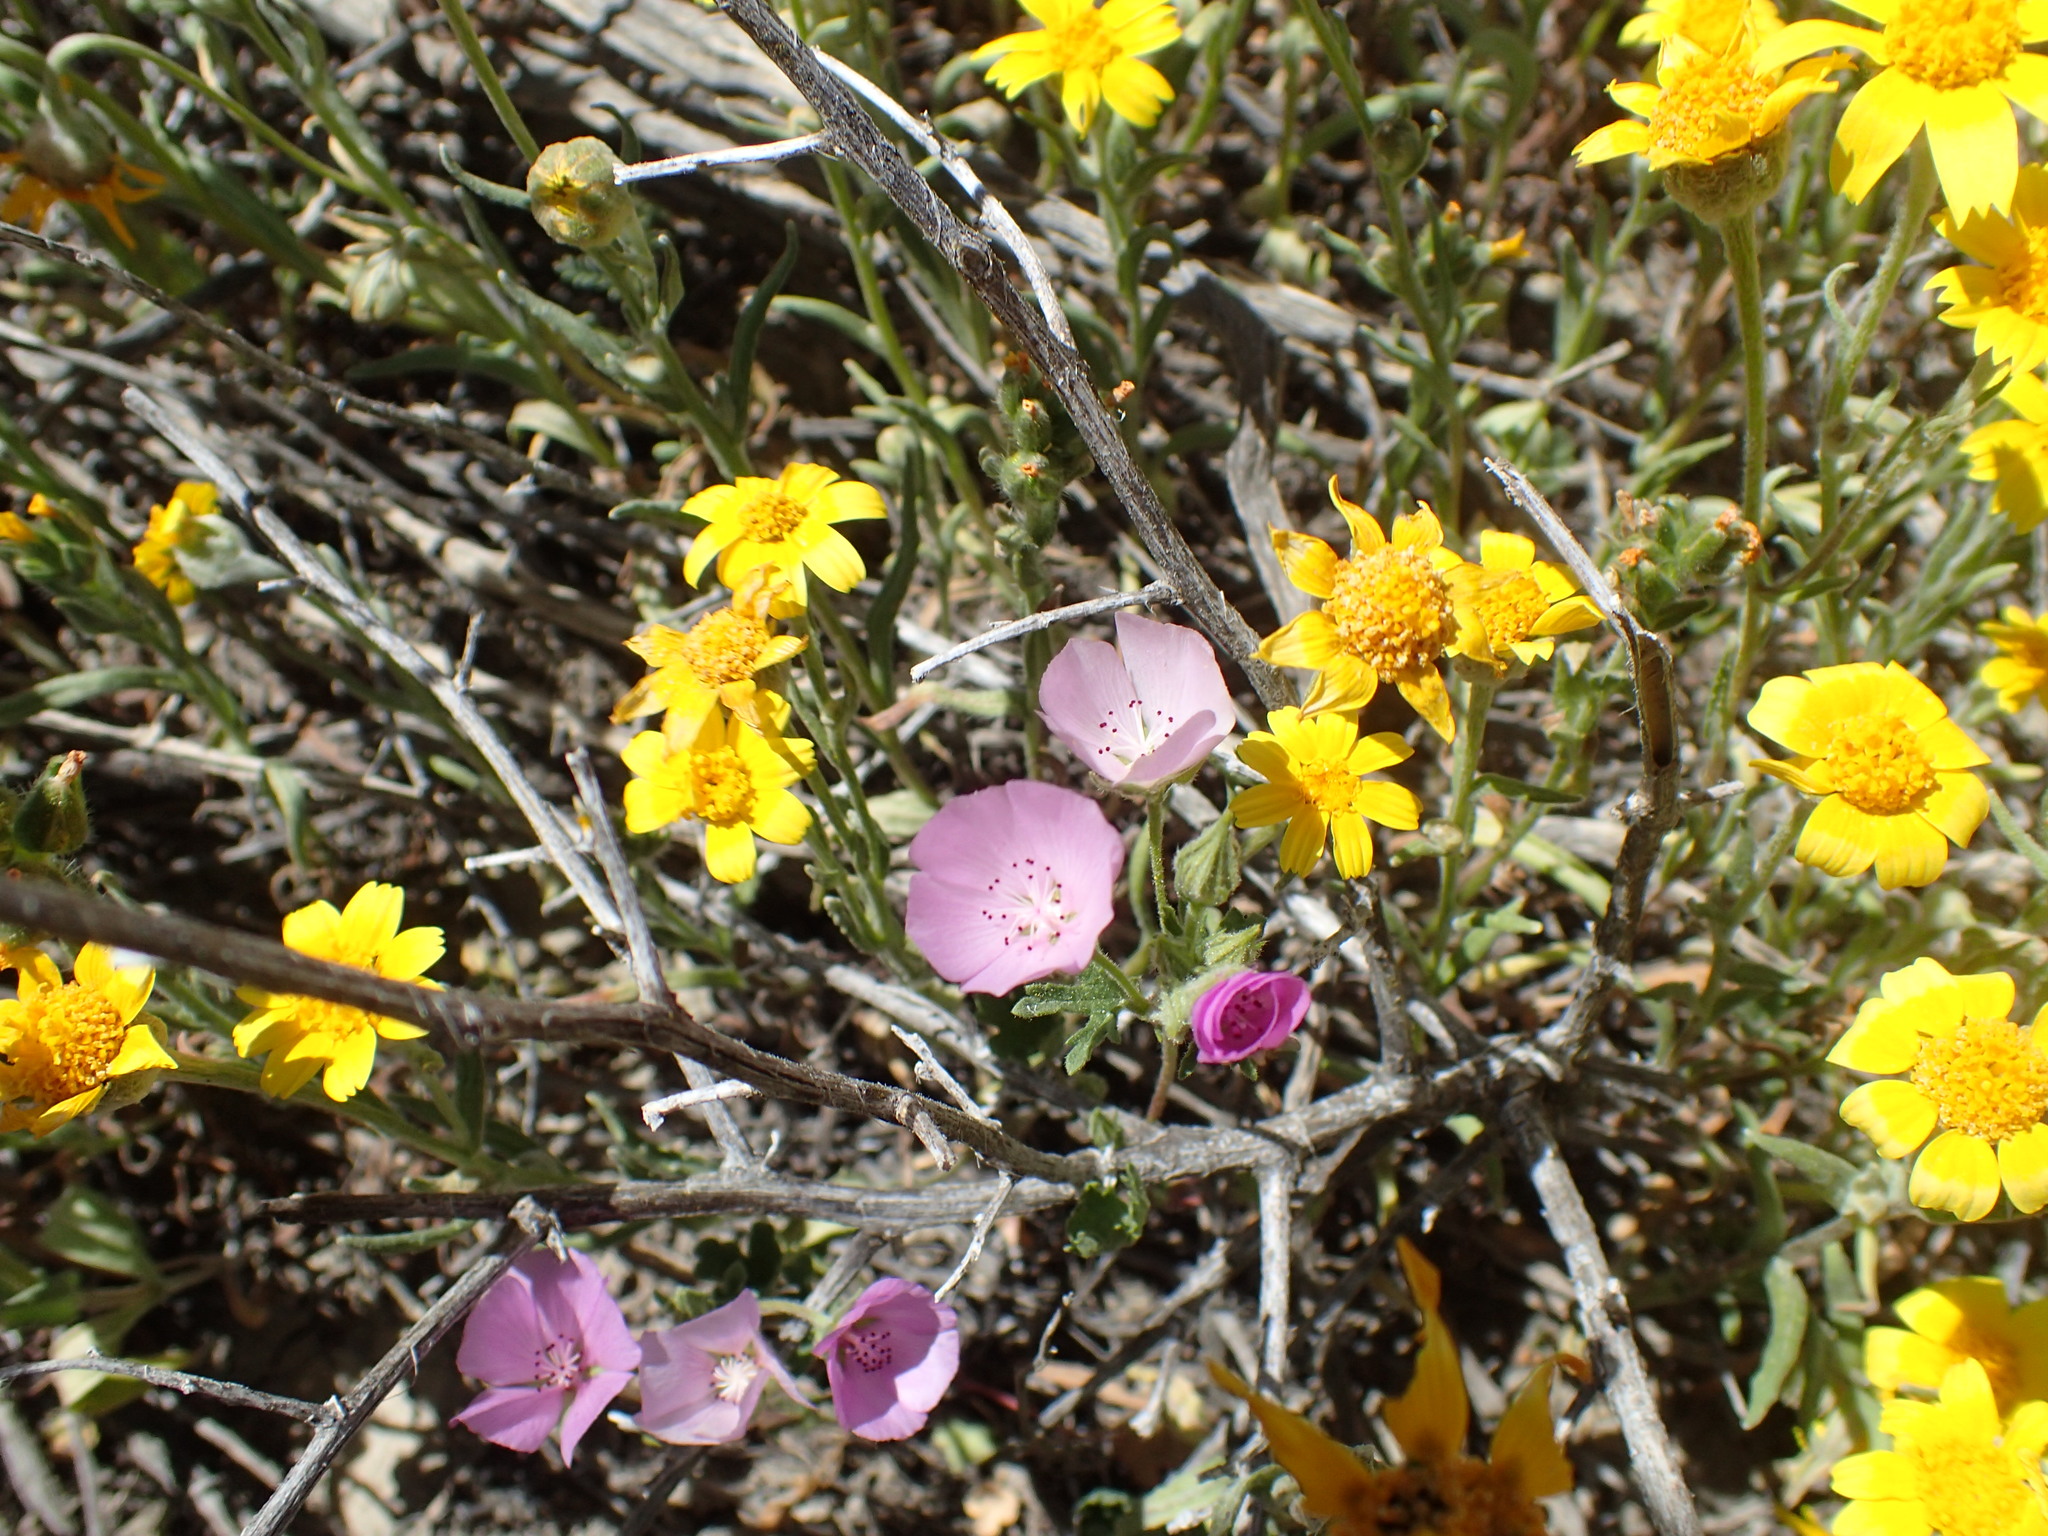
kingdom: Plantae
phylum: Tracheophyta
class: Magnoliopsida
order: Malvales
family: Malvaceae
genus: Eremalche
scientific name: Eremalche parryi
